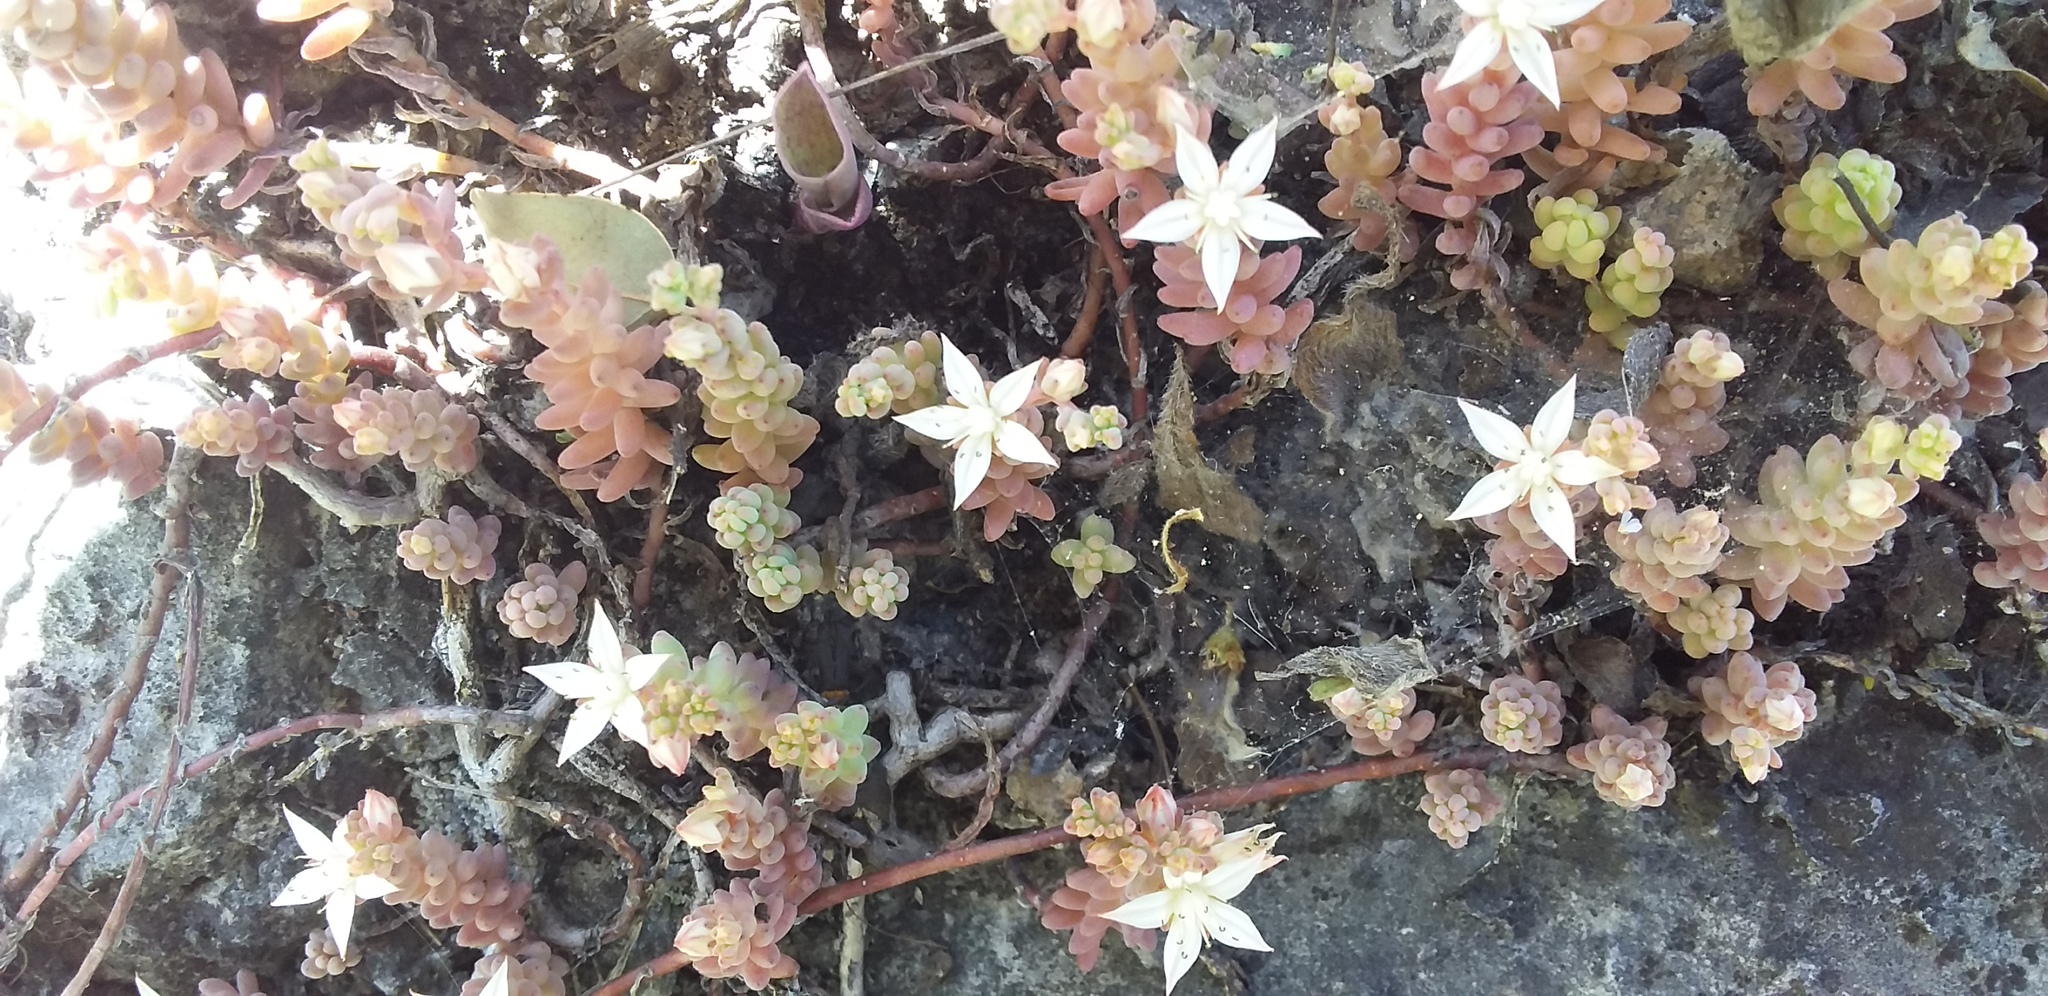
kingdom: Plantae
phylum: Tracheophyta
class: Magnoliopsida
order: Saxifragales
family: Crassulaceae
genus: Sedum
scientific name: Sedum potosinum
